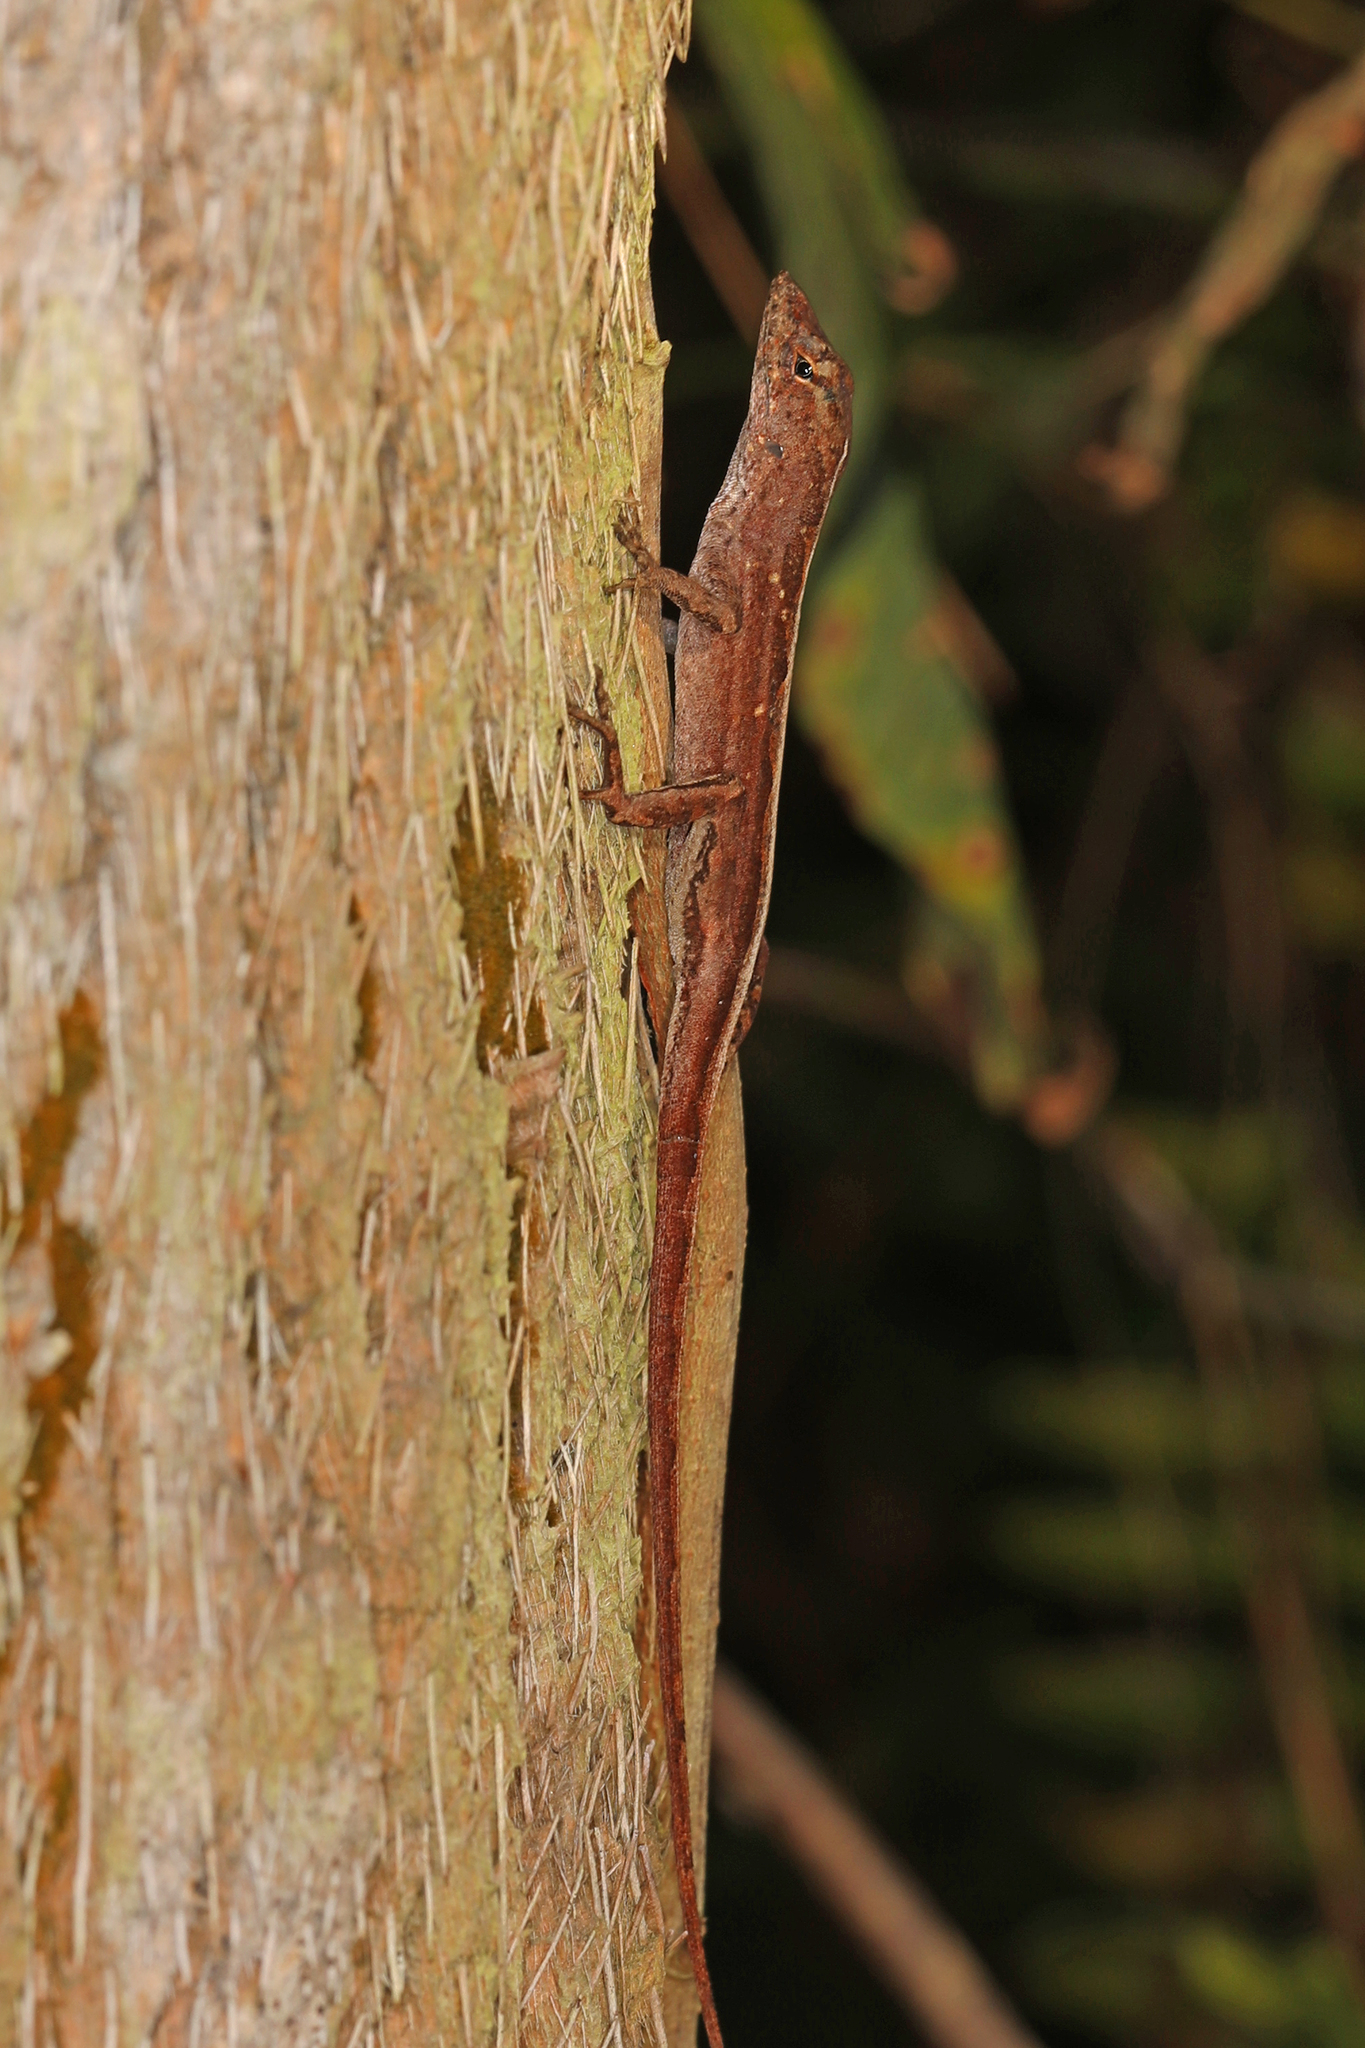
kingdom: Animalia
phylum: Chordata
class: Squamata
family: Dactyloidae
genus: Anolis
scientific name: Anolis sagrei
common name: Brown anole
